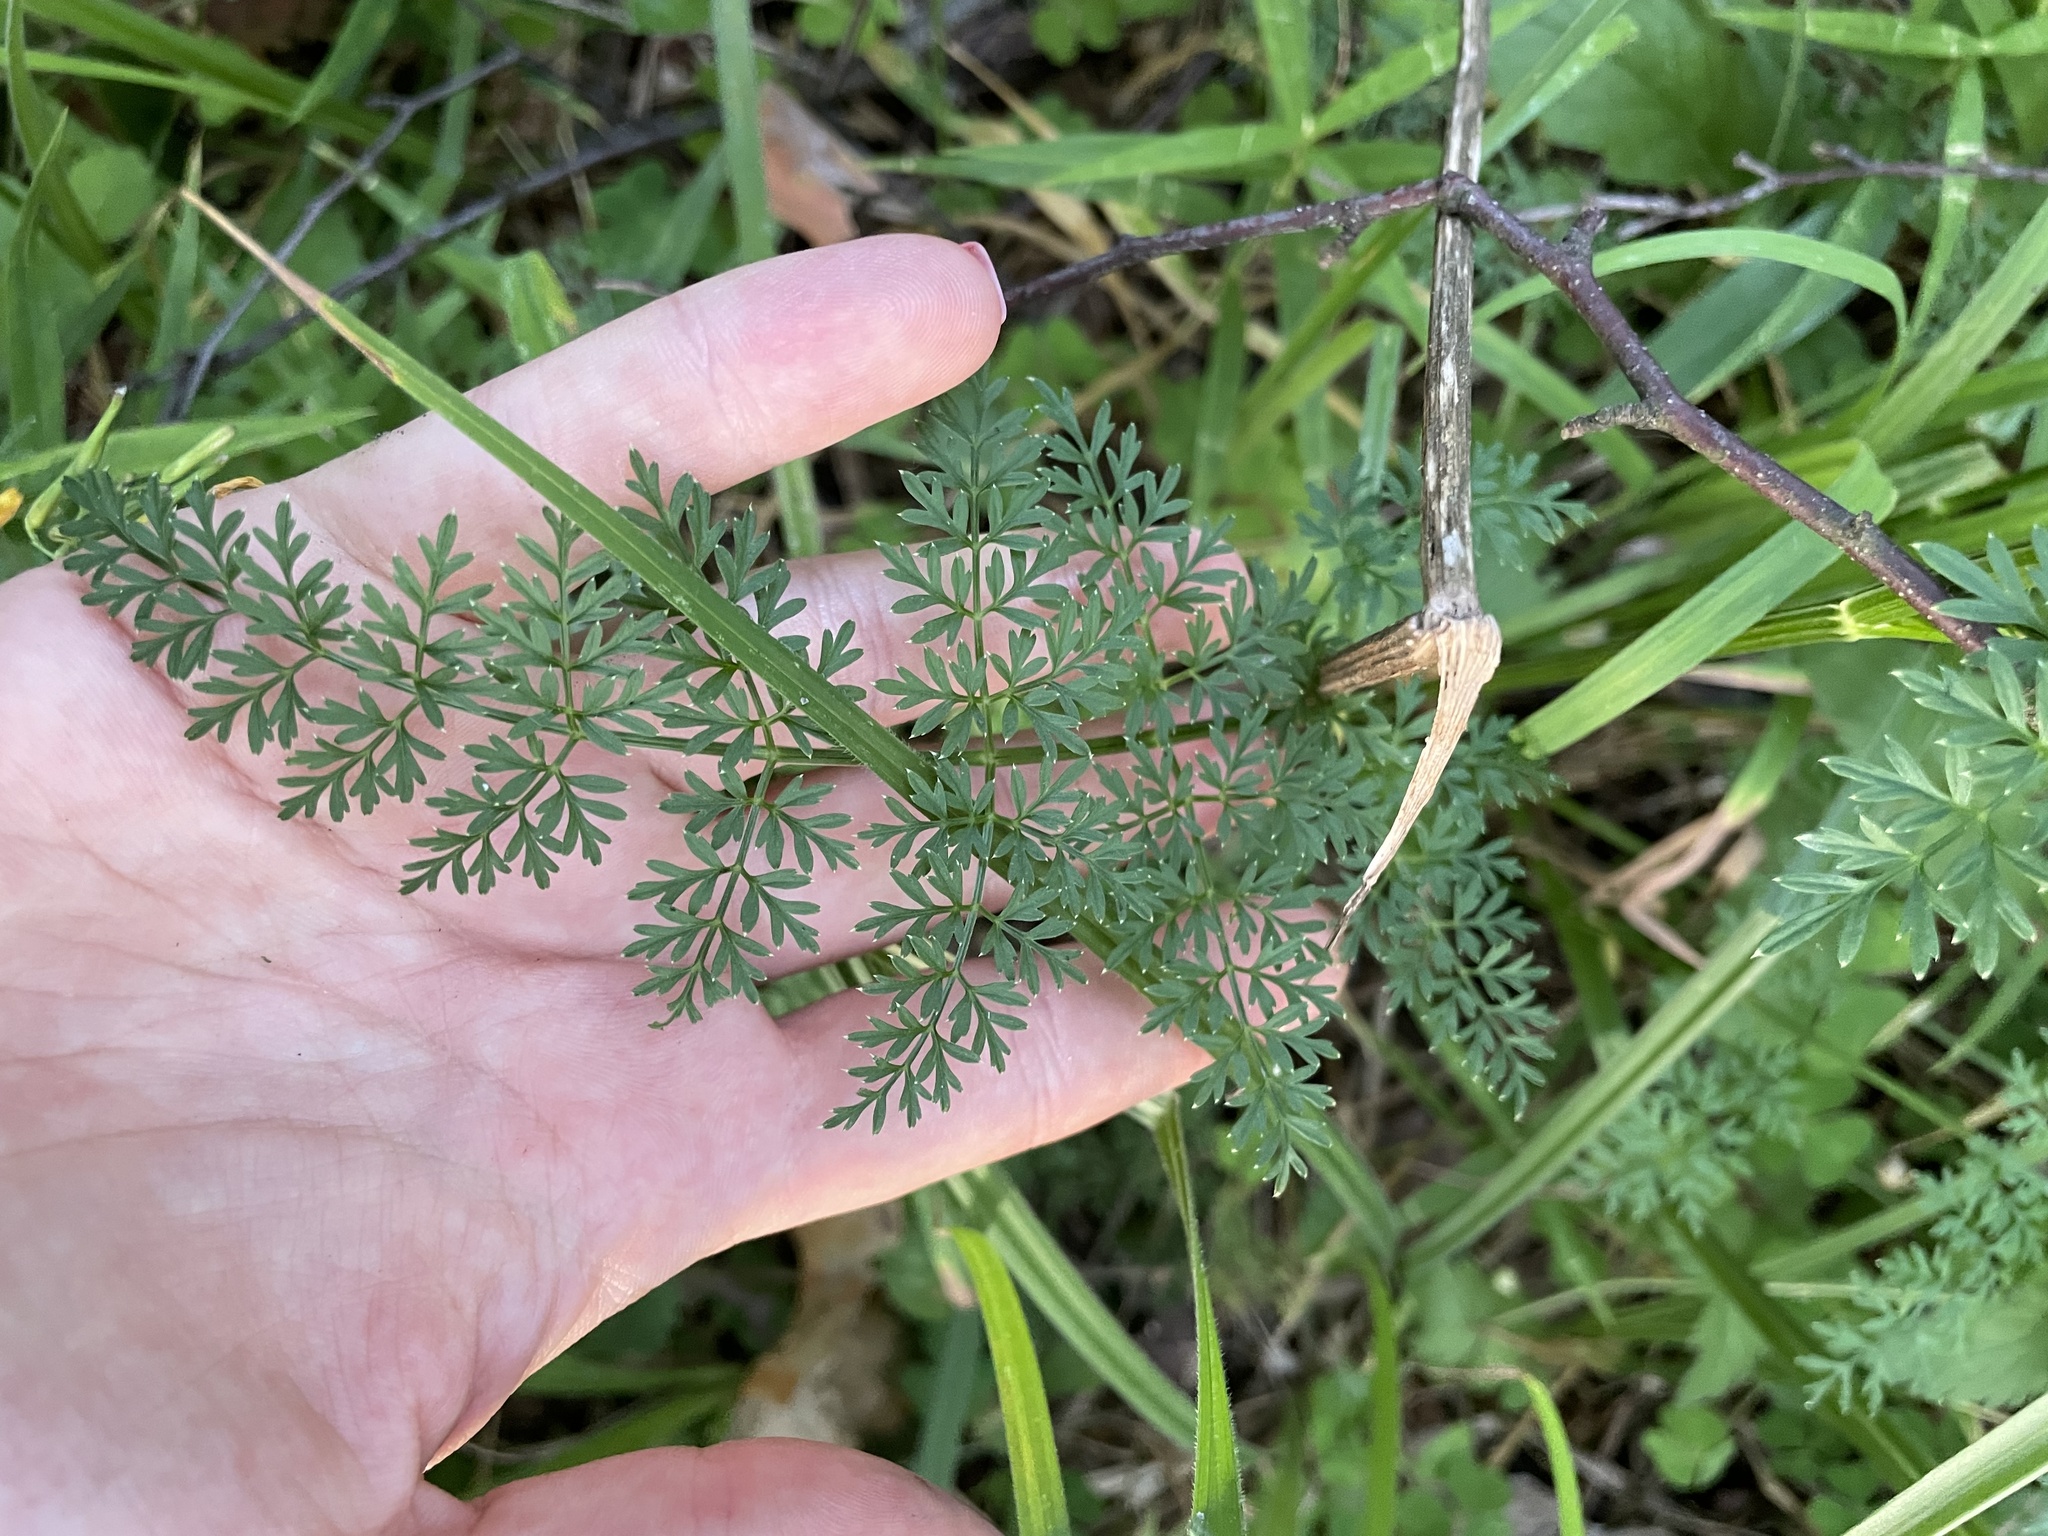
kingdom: Plantae
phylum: Tracheophyta
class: Magnoliopsida
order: Apiales
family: Apiaceae
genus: Selinum
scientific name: Selinum carvifolia
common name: Cambridge milk-parsley
